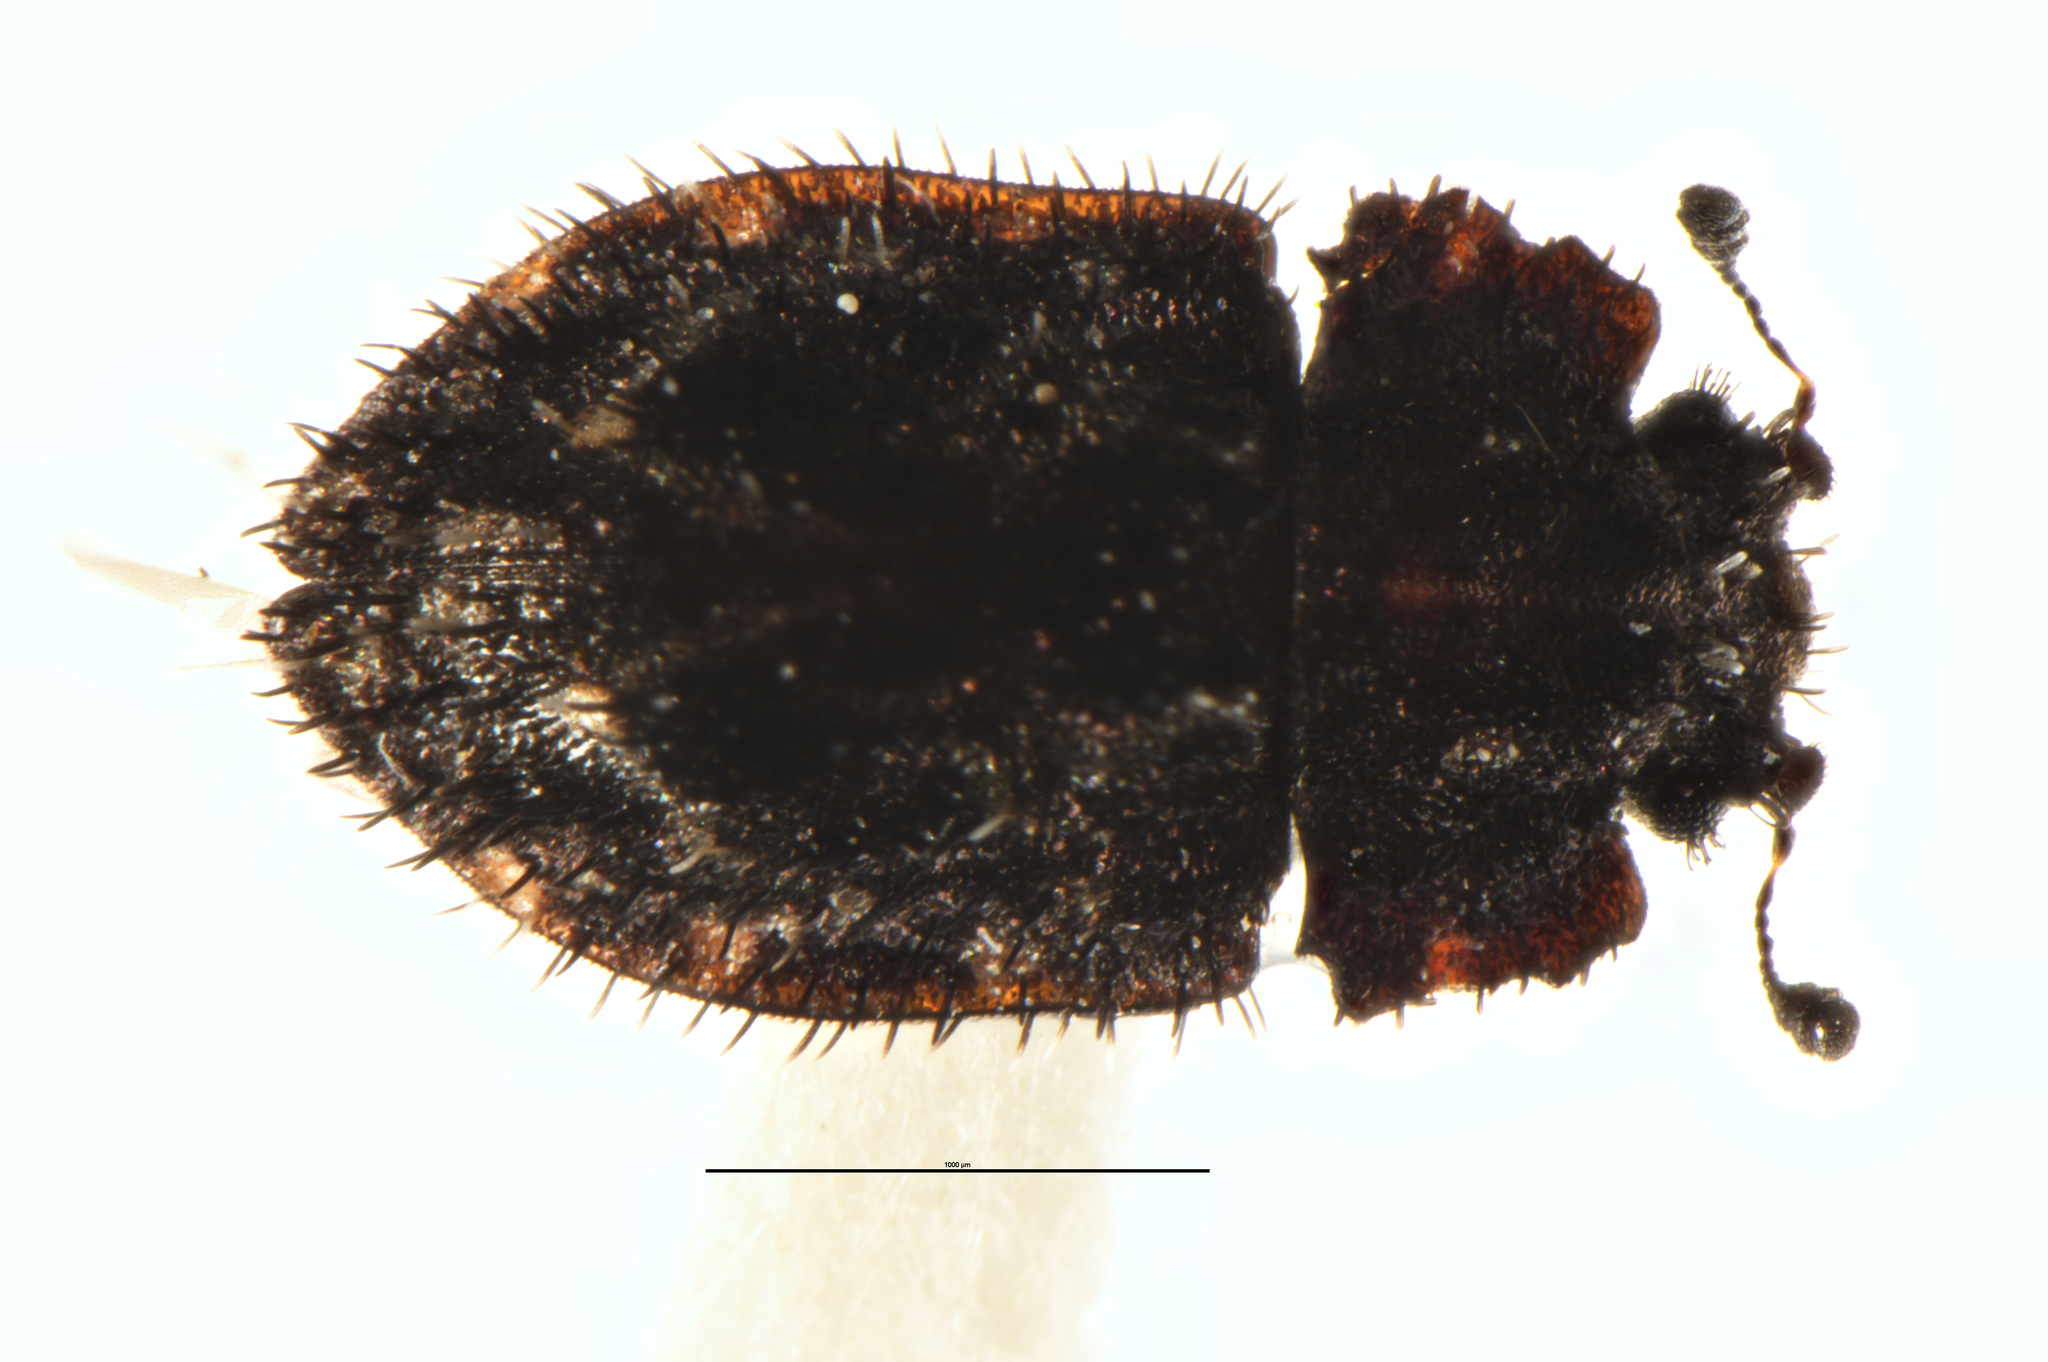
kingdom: Animalia
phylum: Arthropoda
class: Insecta
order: Coleoptera
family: Nitidulidae
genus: Hisparonia
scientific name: Hisparonia
